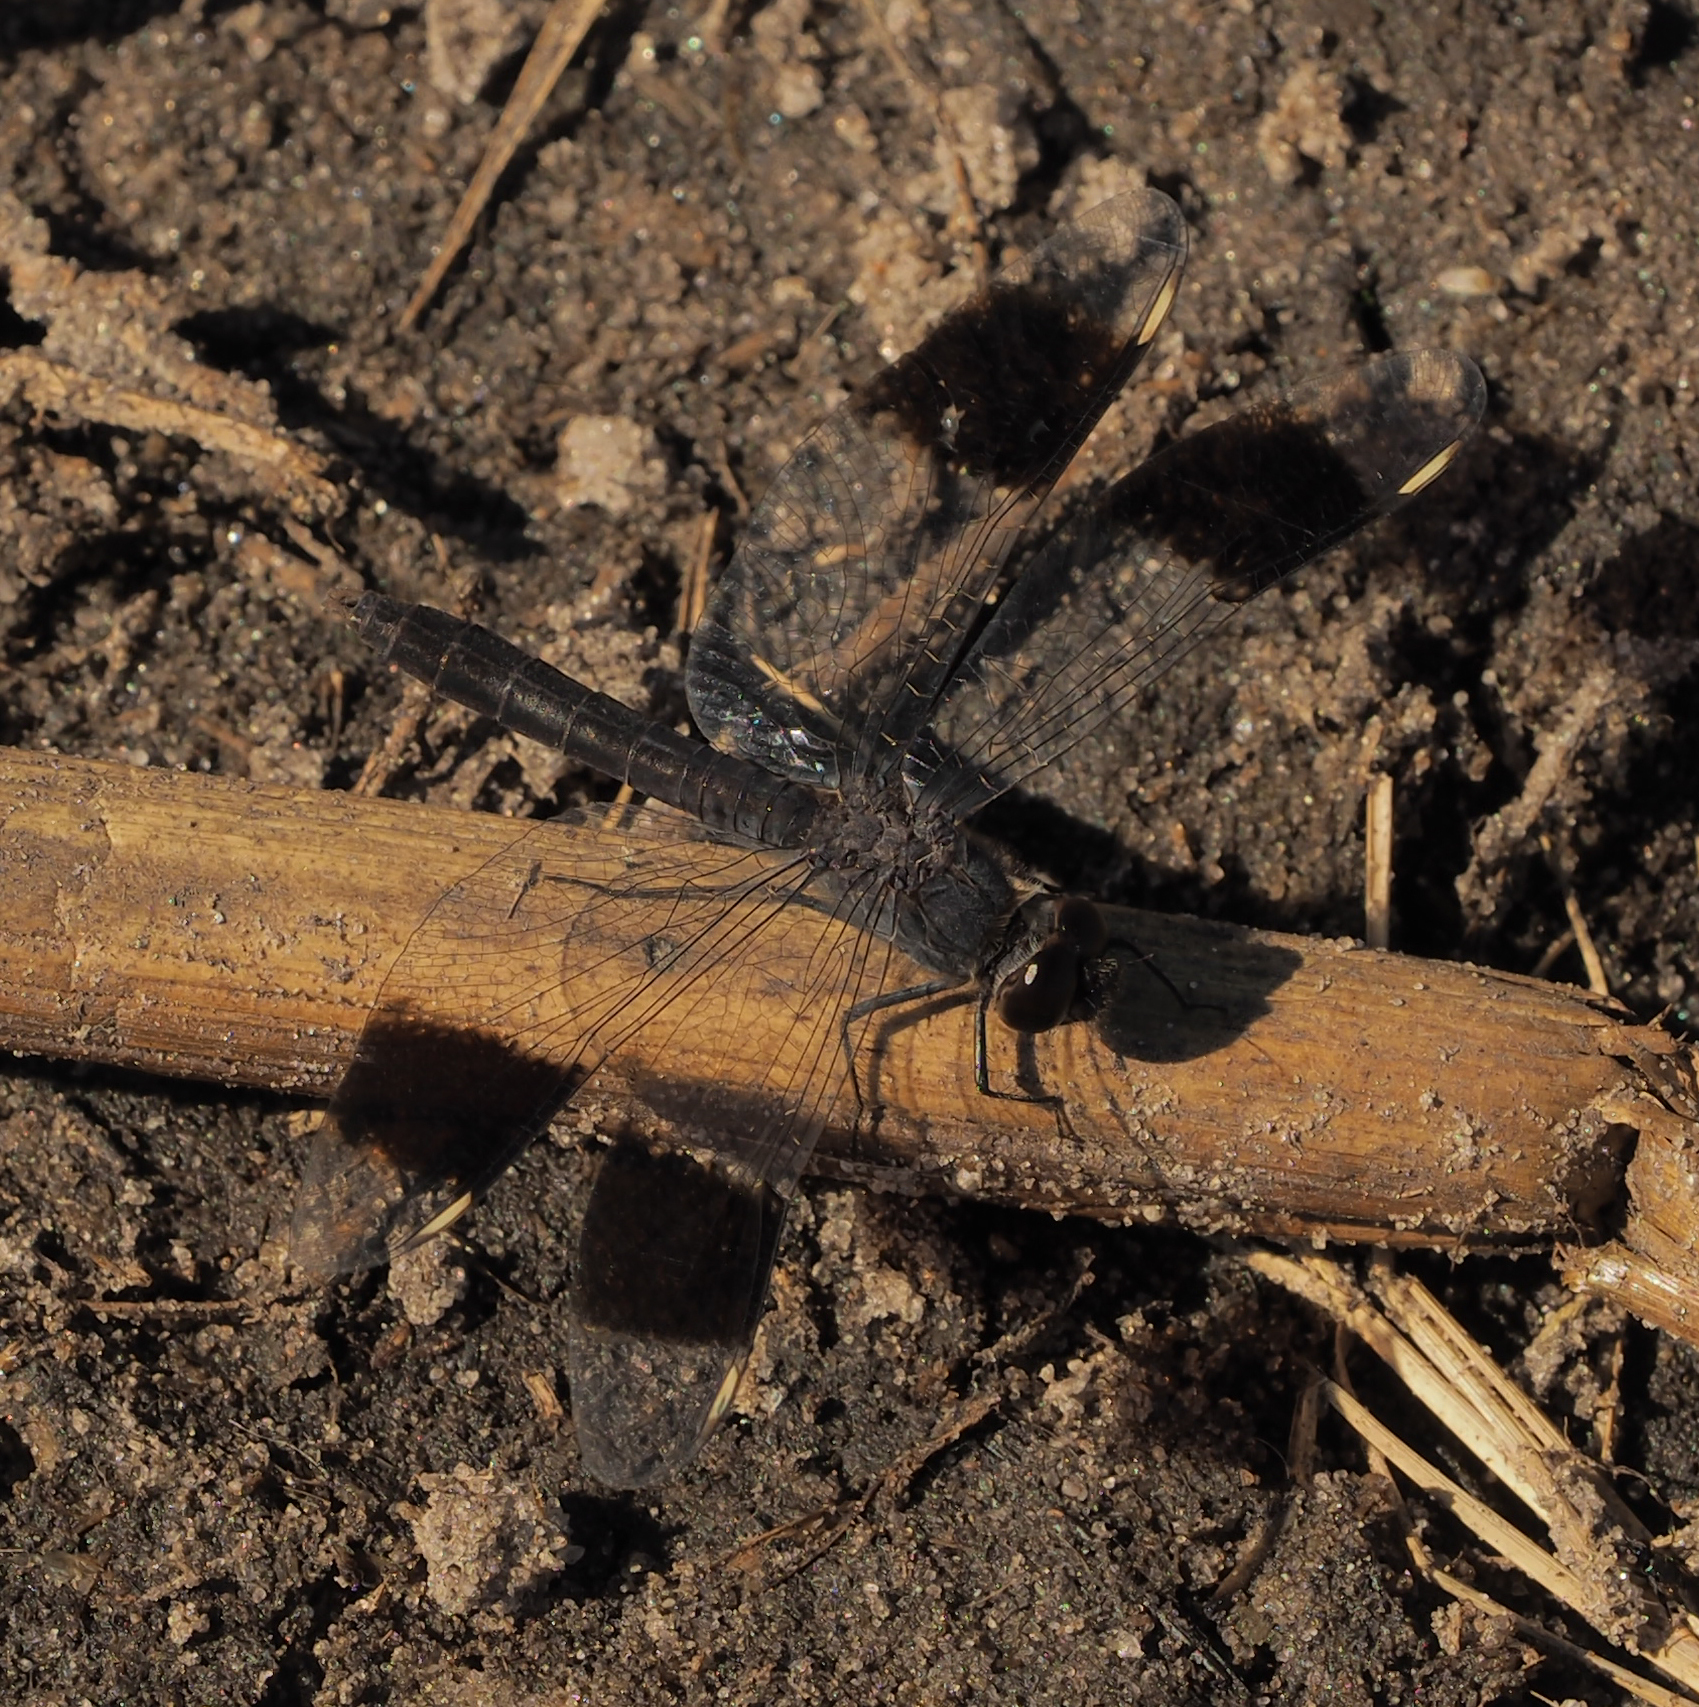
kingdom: Animalia
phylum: Arthropoda
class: Insecta
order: Odonata
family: Libellulidae
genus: Brachythemis
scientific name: Brachythemis leucosticta
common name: Banded groundling
